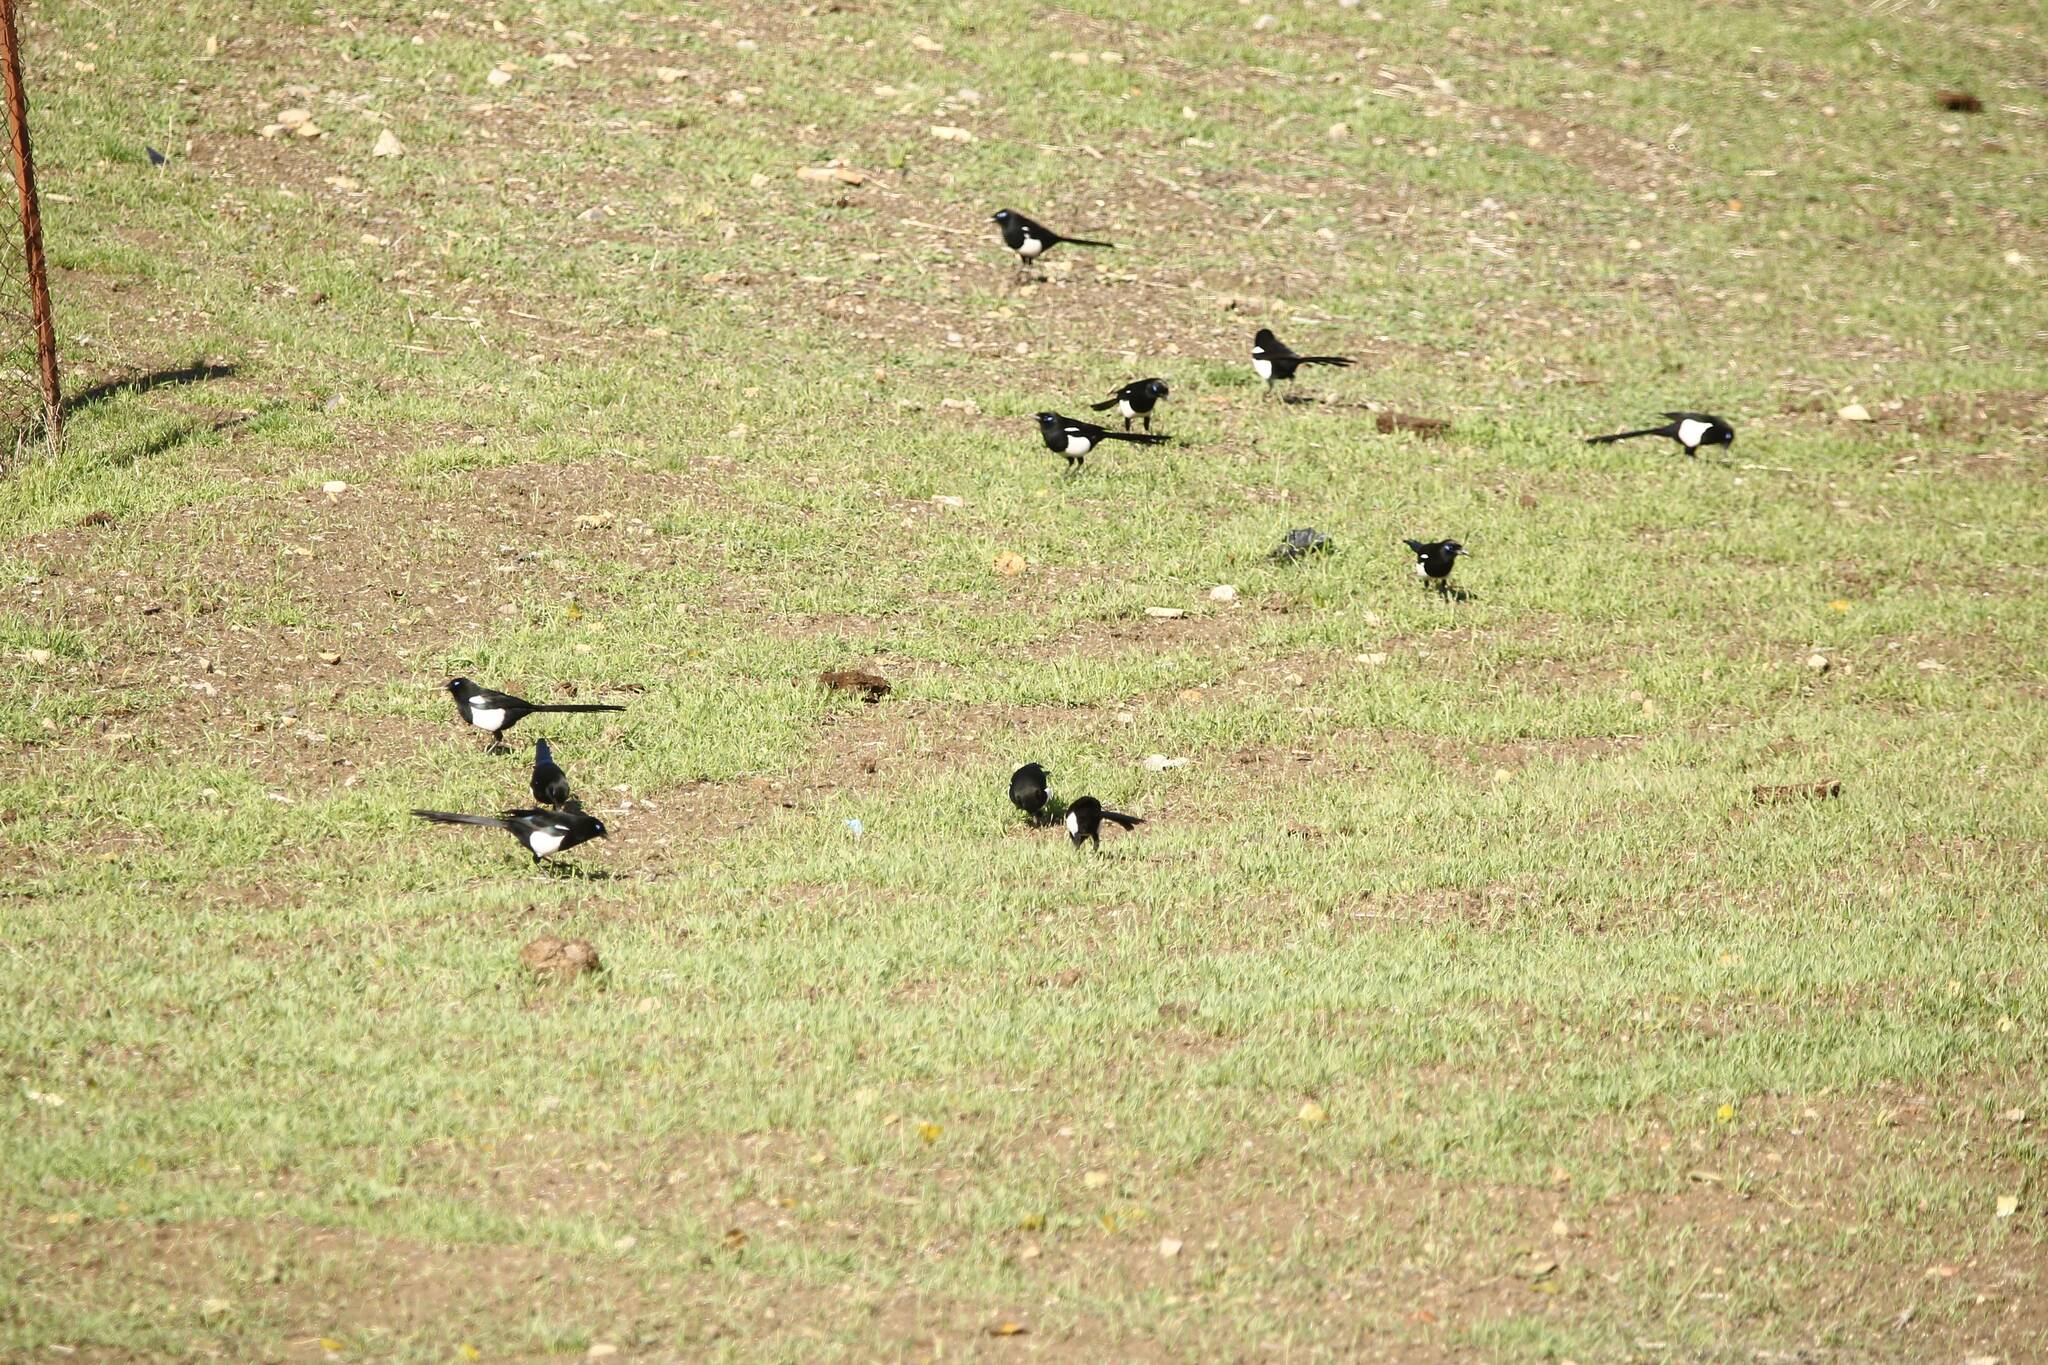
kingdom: Animalia
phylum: Chordata
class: Aves
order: Passeriformes
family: Corvidae
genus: Pica
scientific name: Pica mauritanica
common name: Maghreb magpie
